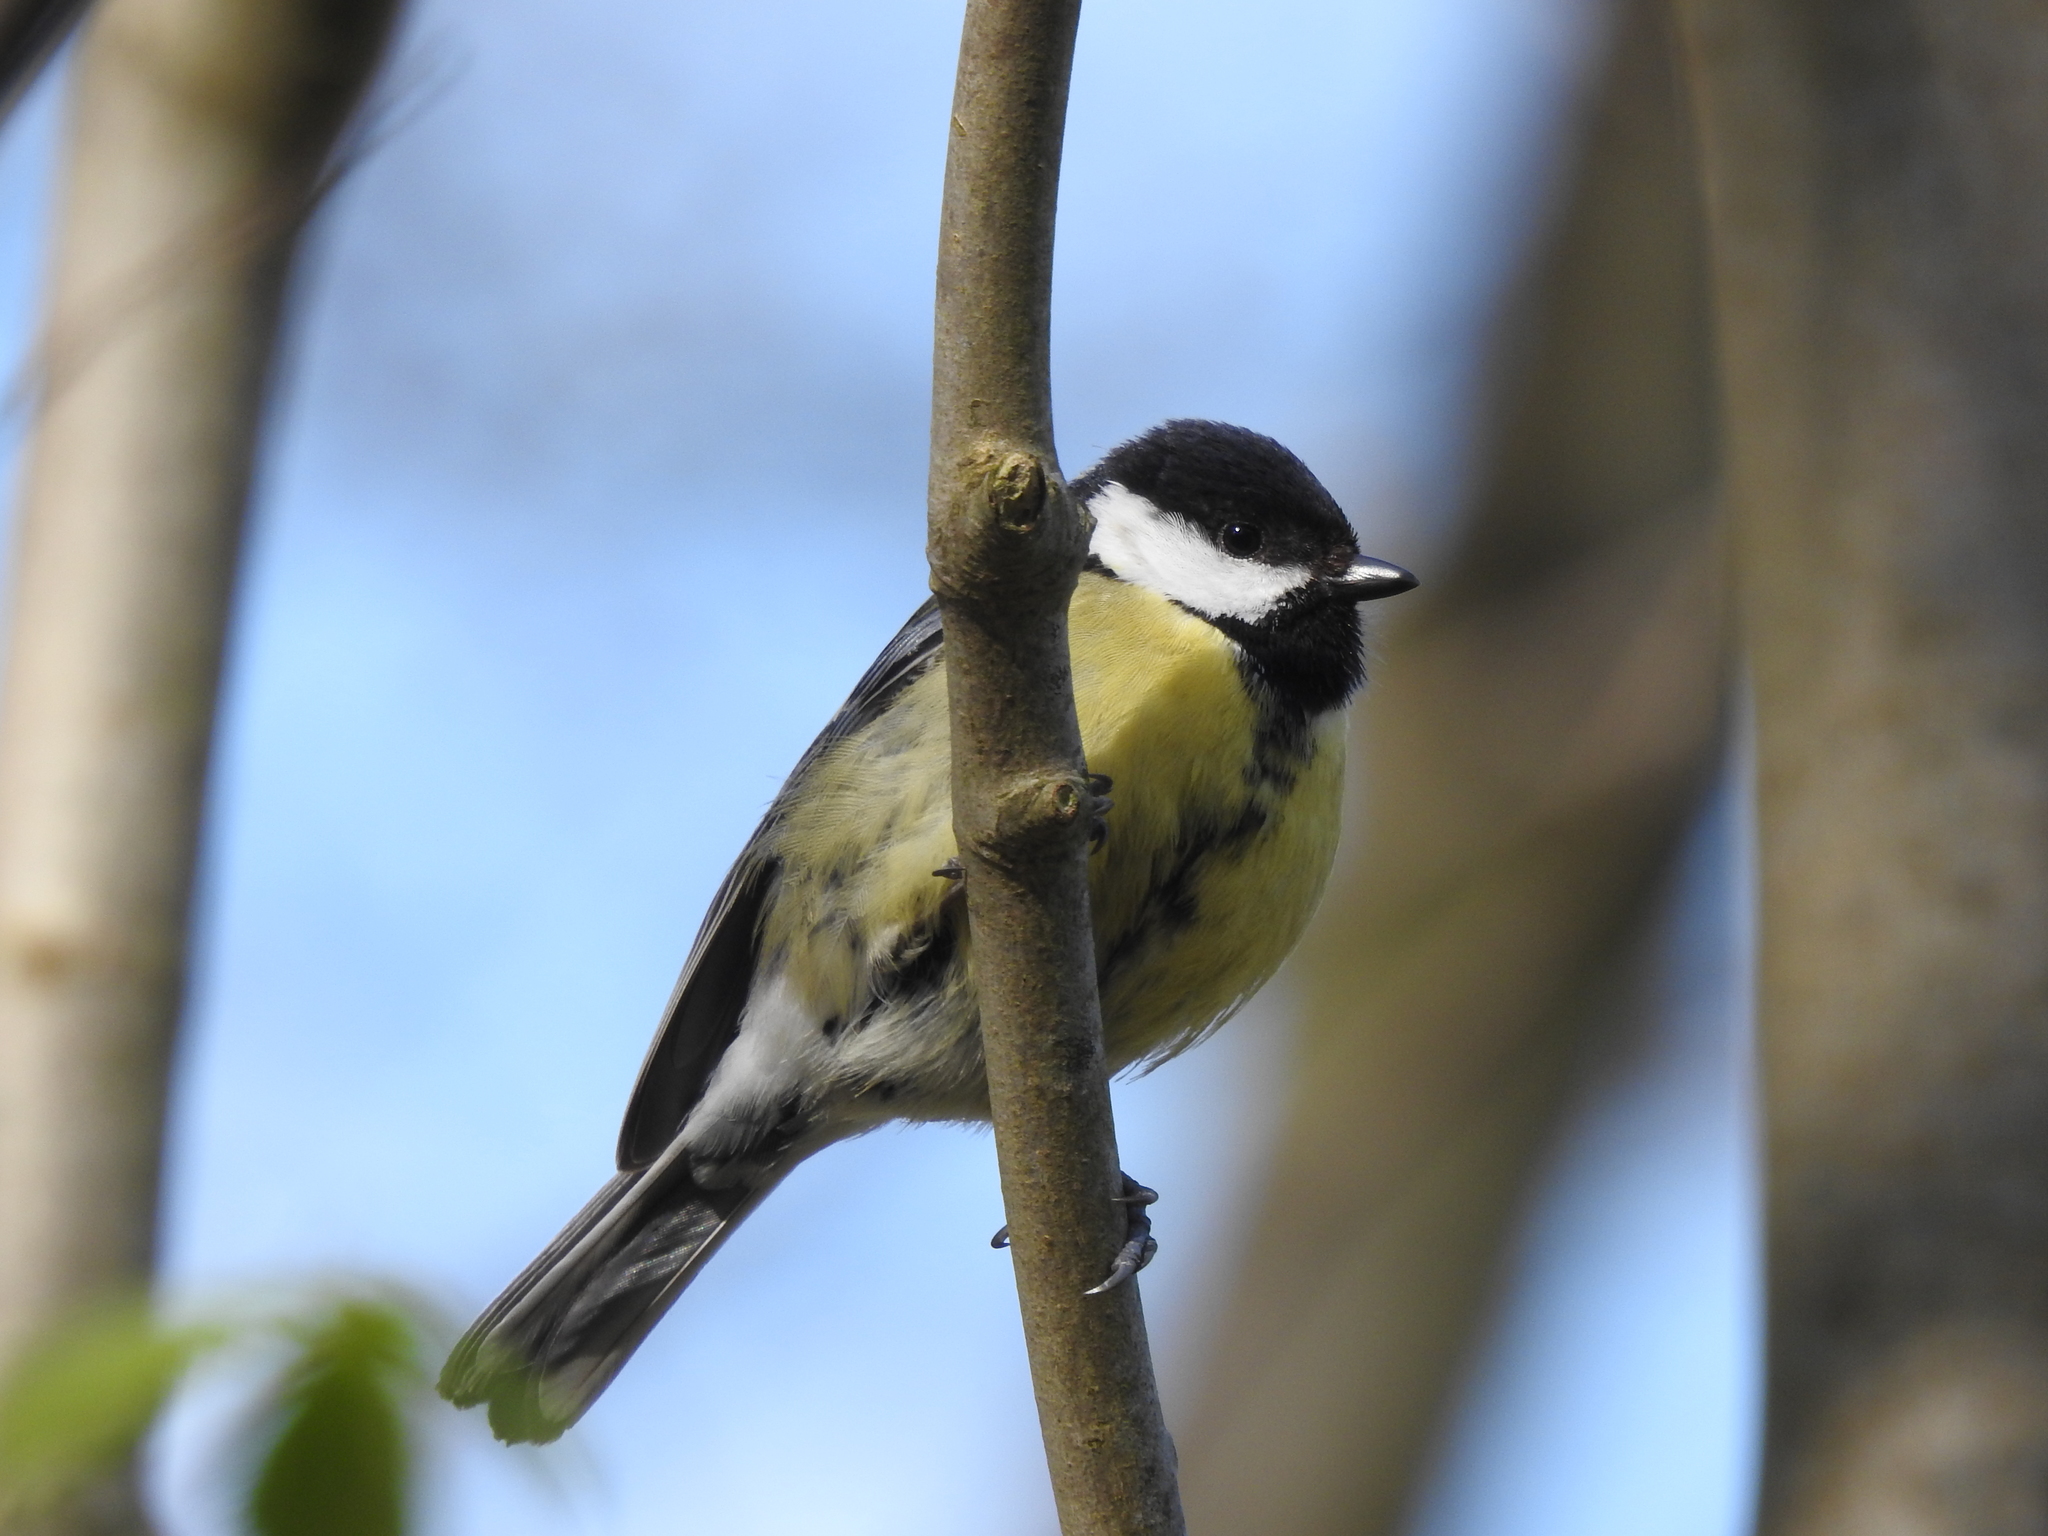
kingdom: Animalia
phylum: Chordata
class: Aves
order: Passeriformes
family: Paridae
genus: Parus
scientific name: Parus major
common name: Great tit
